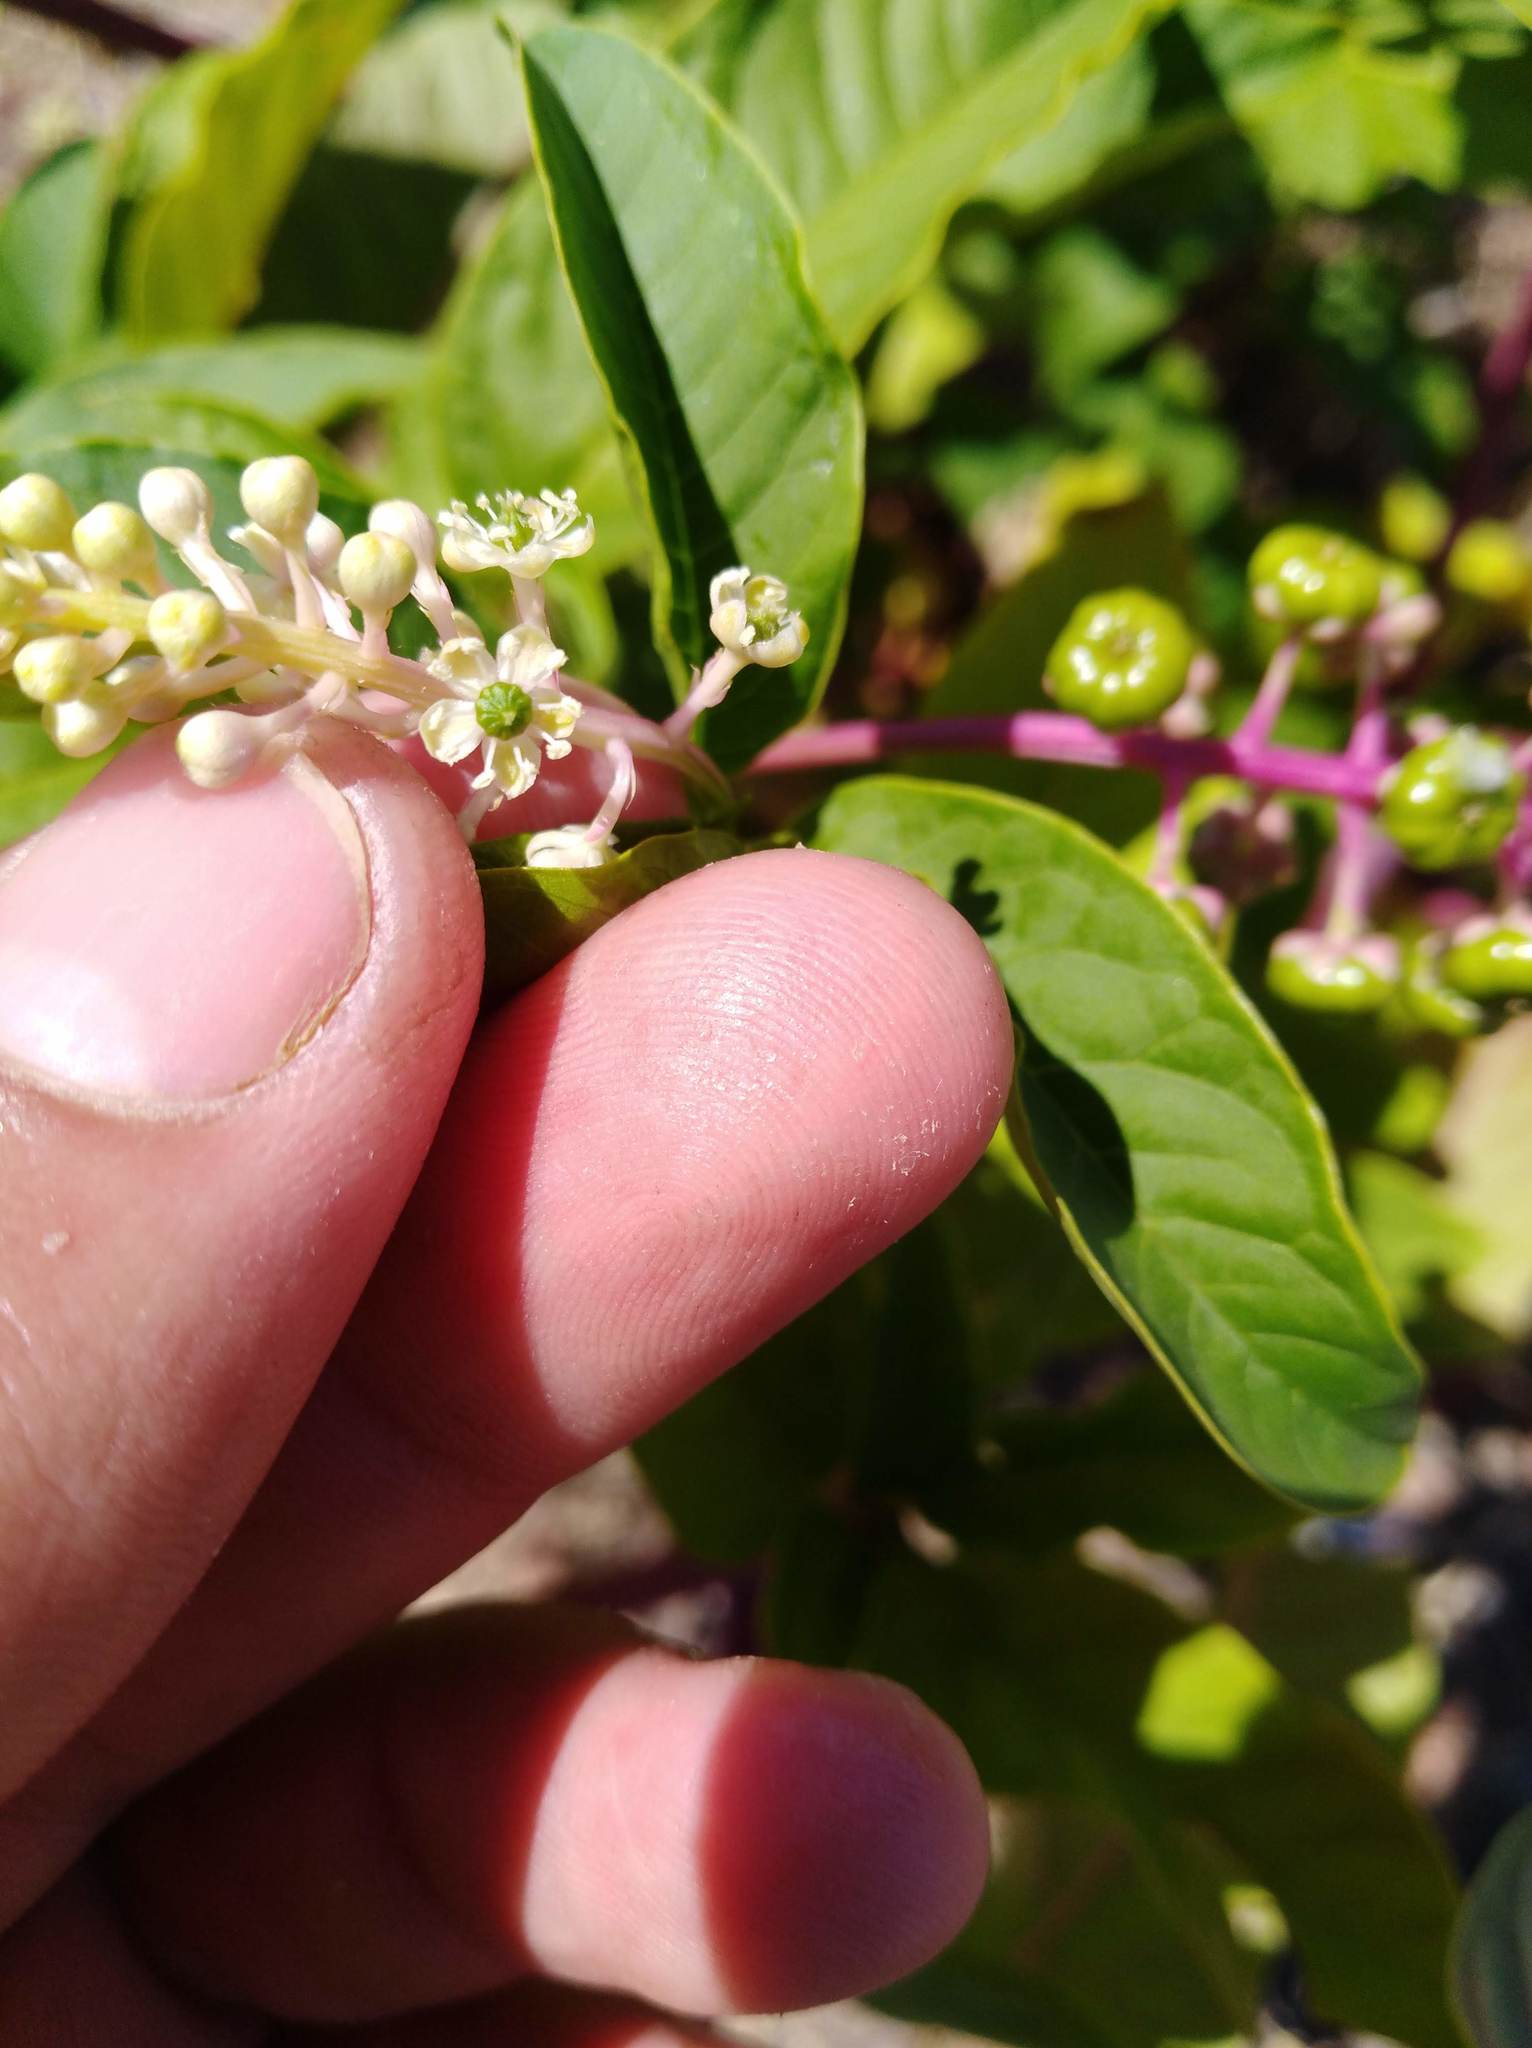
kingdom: Plantae
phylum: Tracheophyta
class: Magnoliopsida
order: Caryophyllales
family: Phytolaccaceae
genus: Phytolacca
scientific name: Phytolacca americana
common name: American pokeweed
